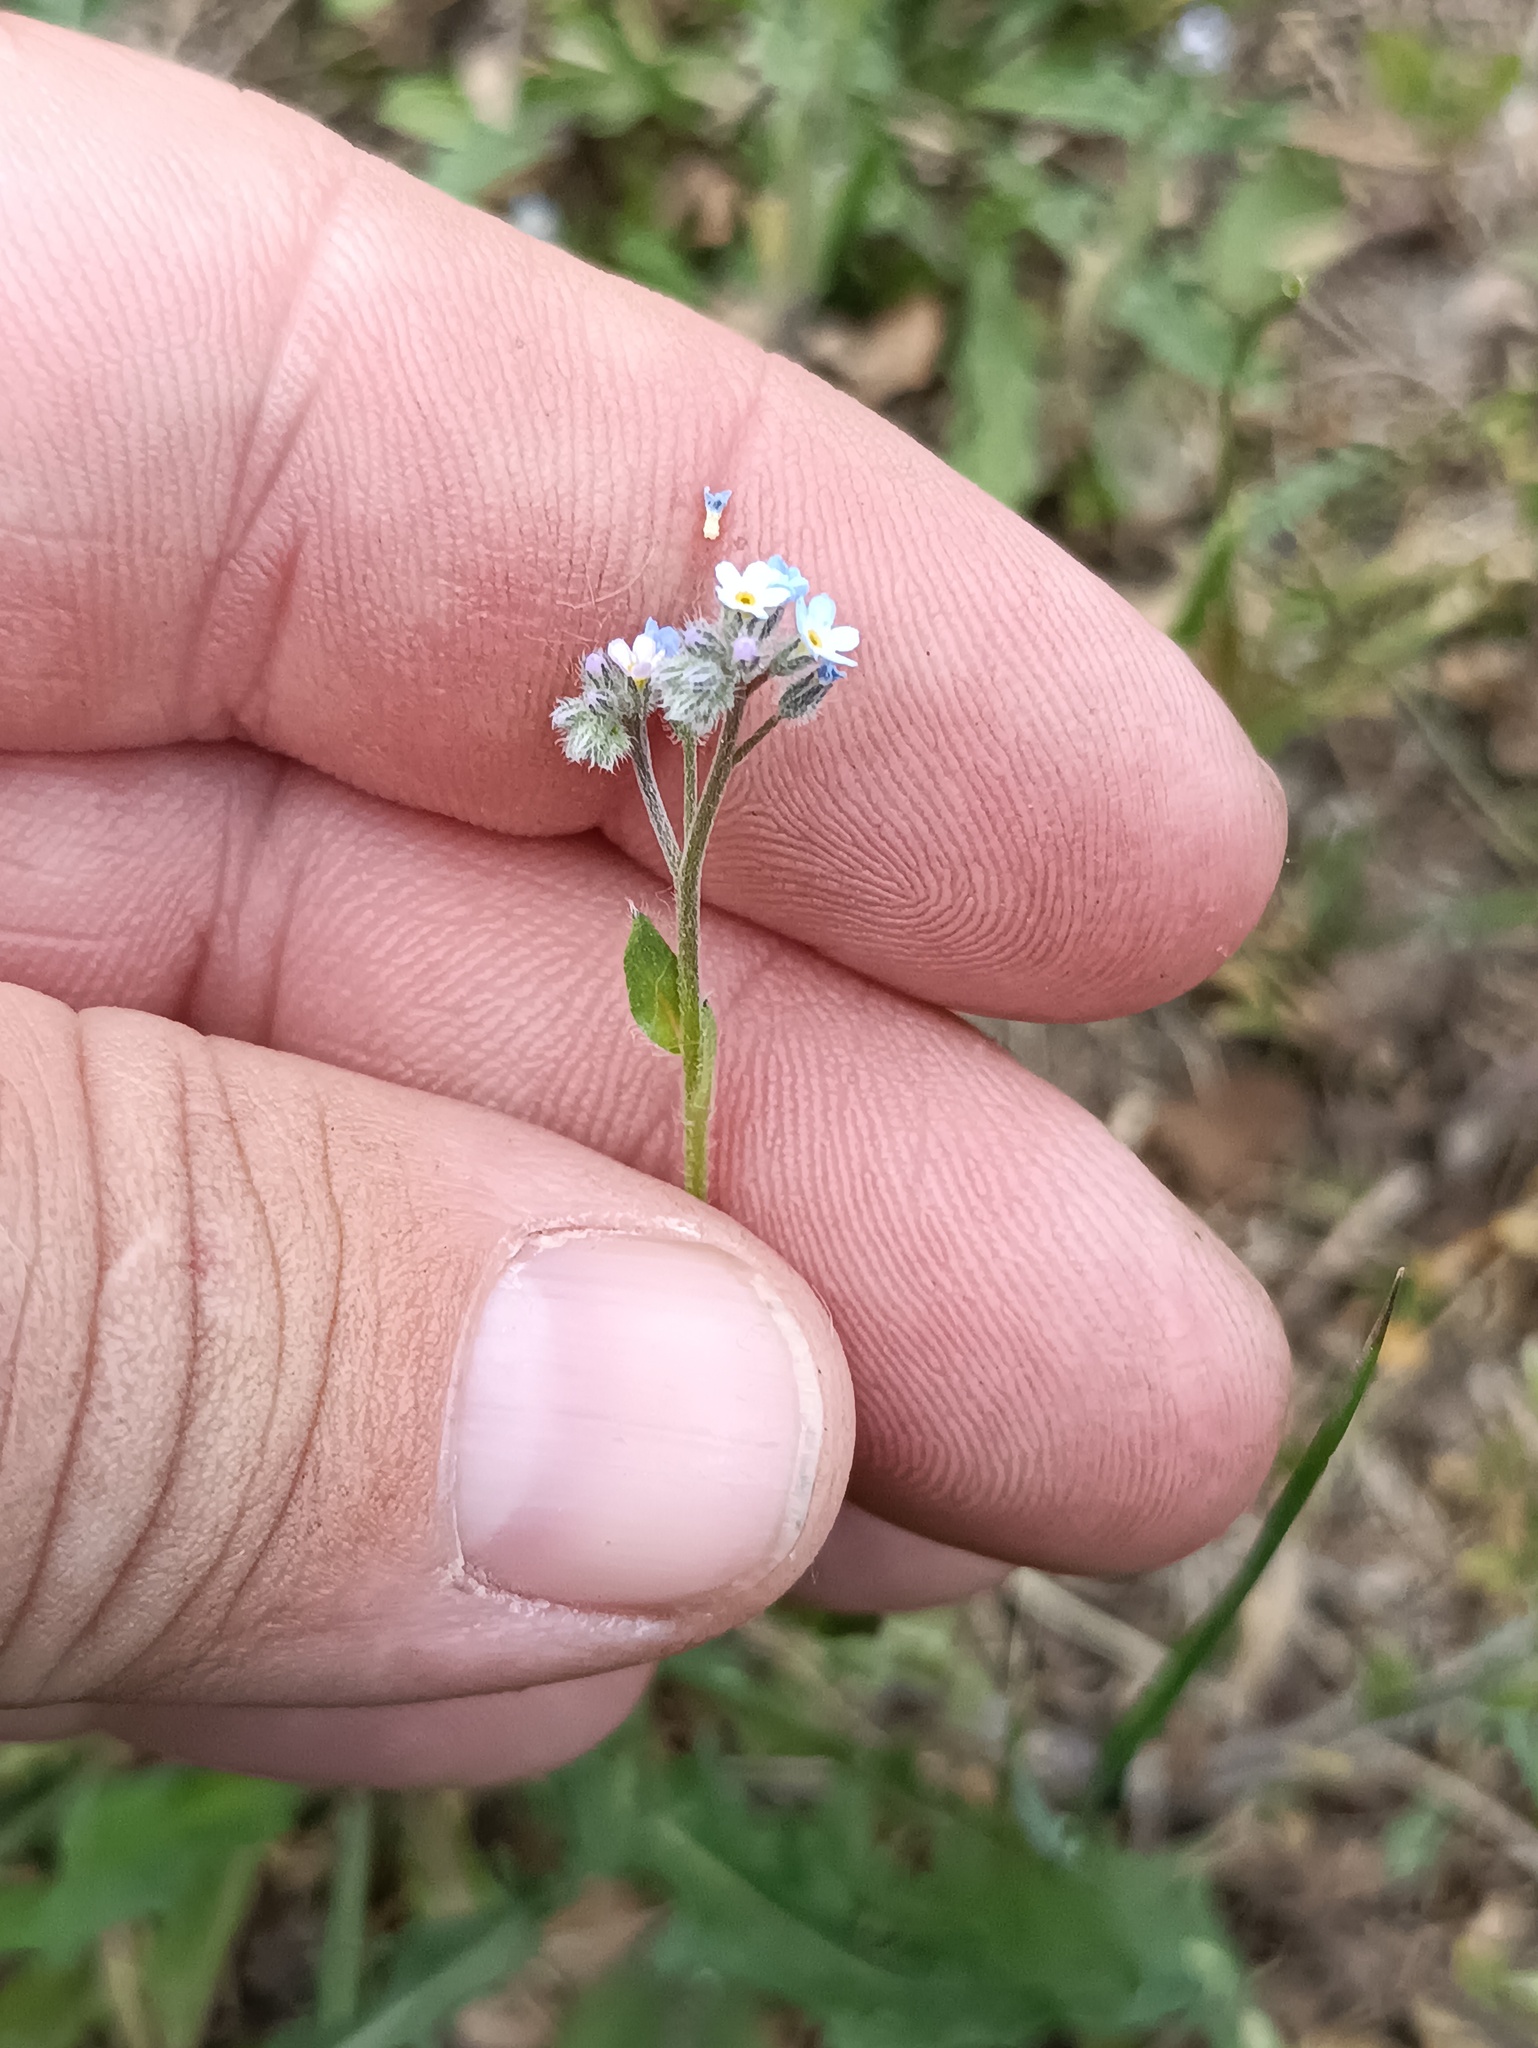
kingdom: Plantae
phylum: Tracheophyta
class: Magnoliopsida
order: Boraginales
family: Boraginaceae
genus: Myosotis
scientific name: Myosotis arvensis
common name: Field forget-me-not
